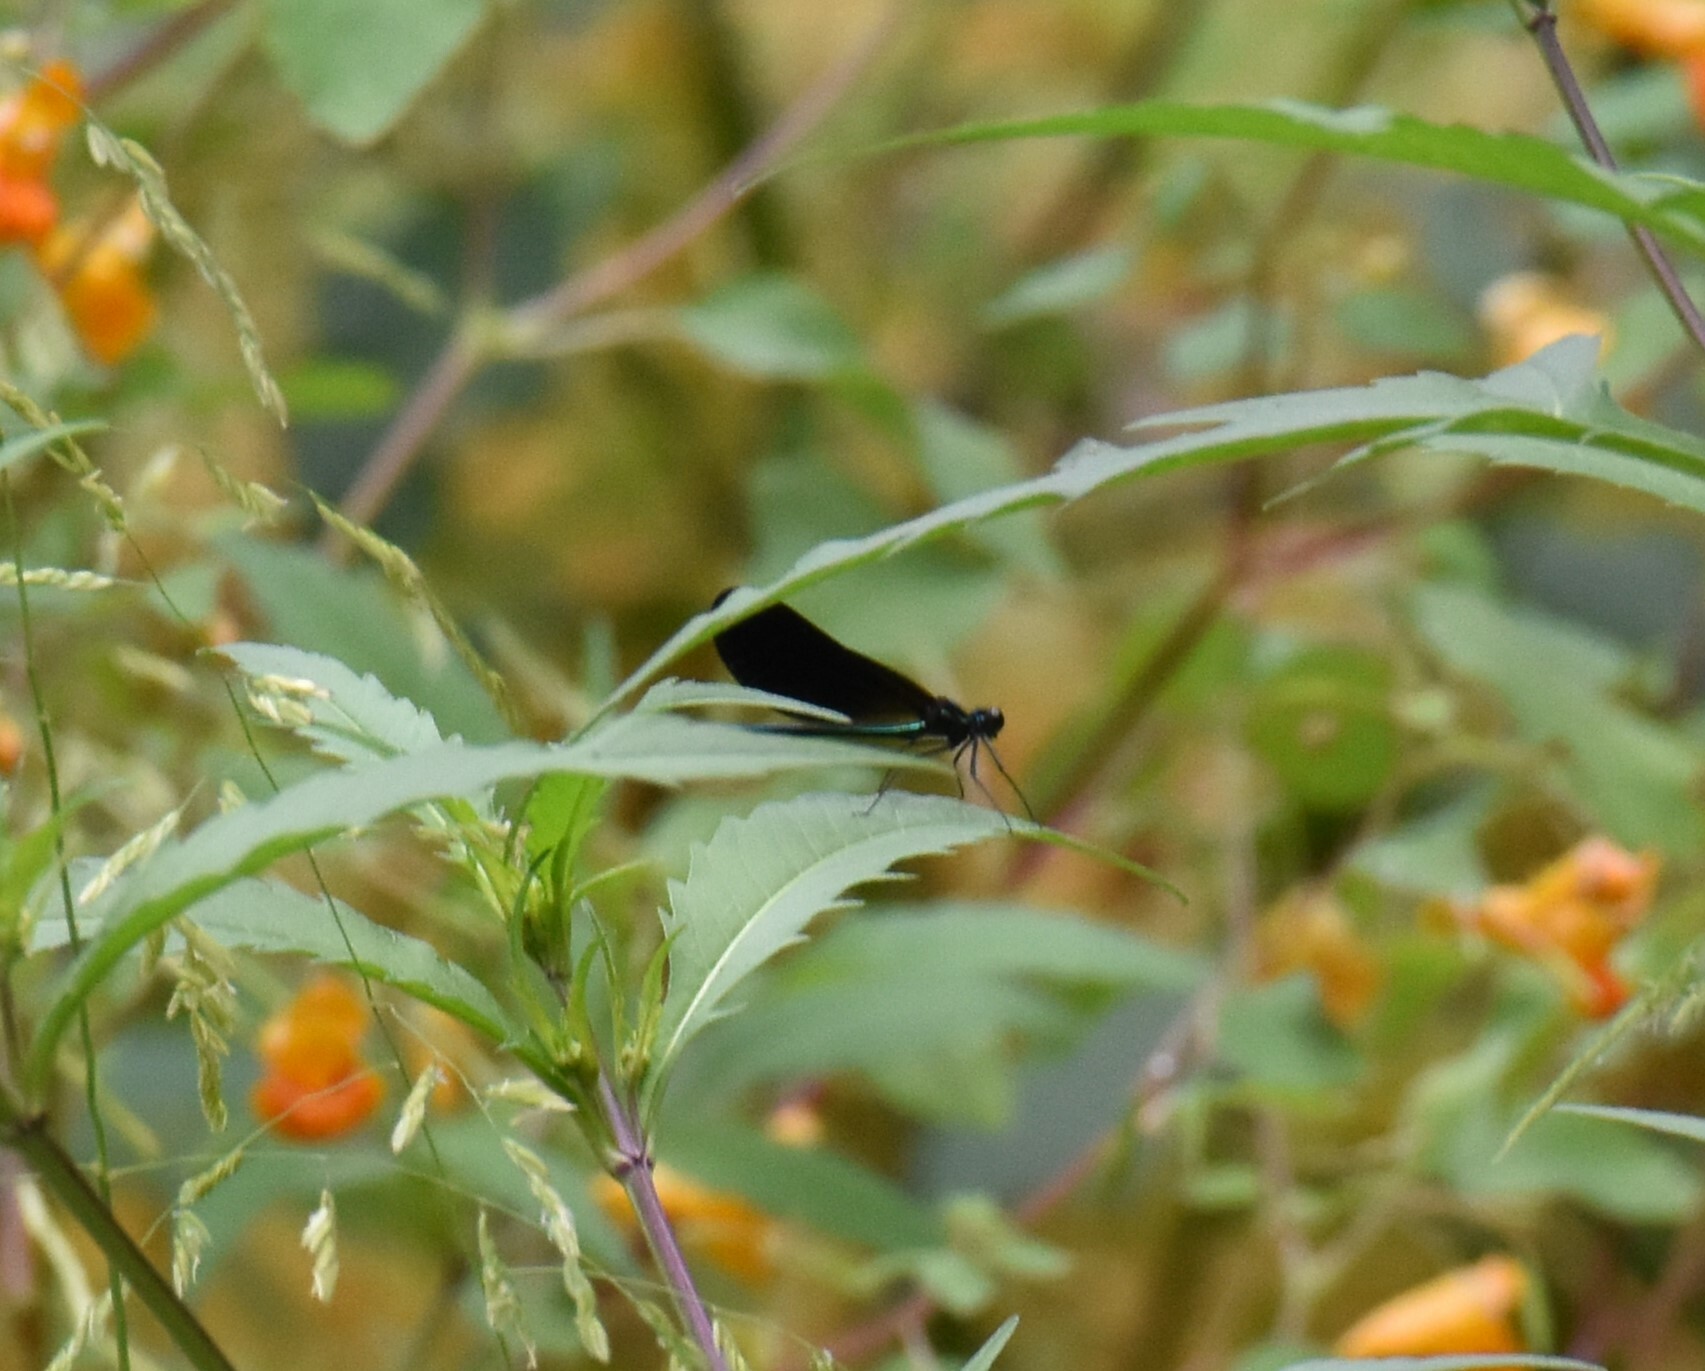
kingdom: Animalia
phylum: Arthropoda
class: Insecta
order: Odonata
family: Calopterygidae
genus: Calopteryx
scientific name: Calopteryx maculata
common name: Ebony jewelwing
